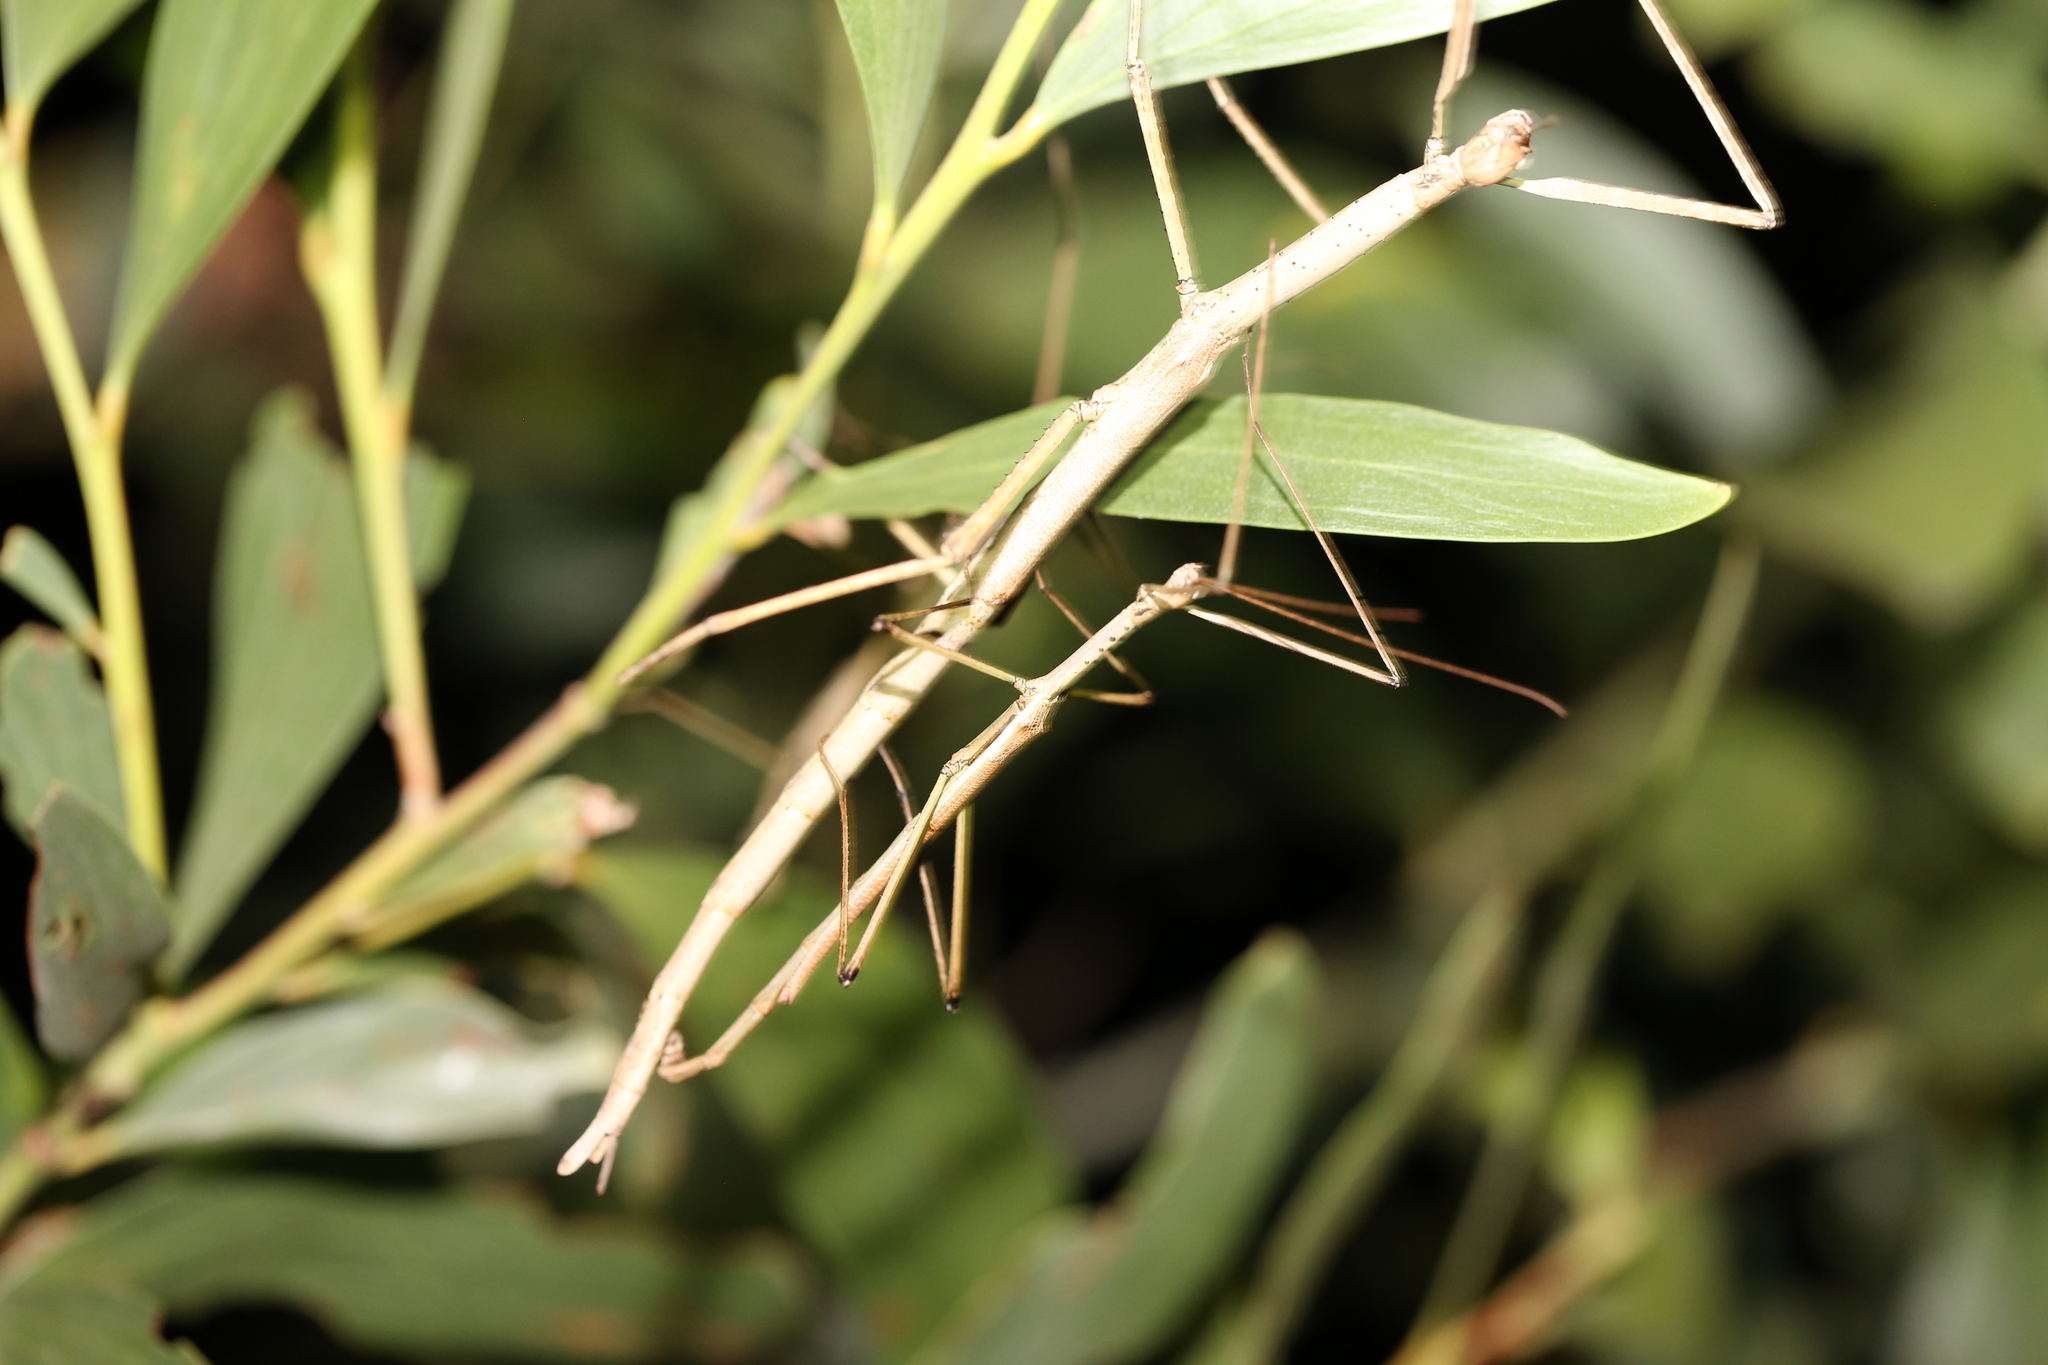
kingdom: Animalia
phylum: Arthropoda
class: Insecta
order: Phasmida
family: Phasmatidae
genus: Anchiale
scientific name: Anchiale austrotessulata
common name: Tessellated stick-insect
